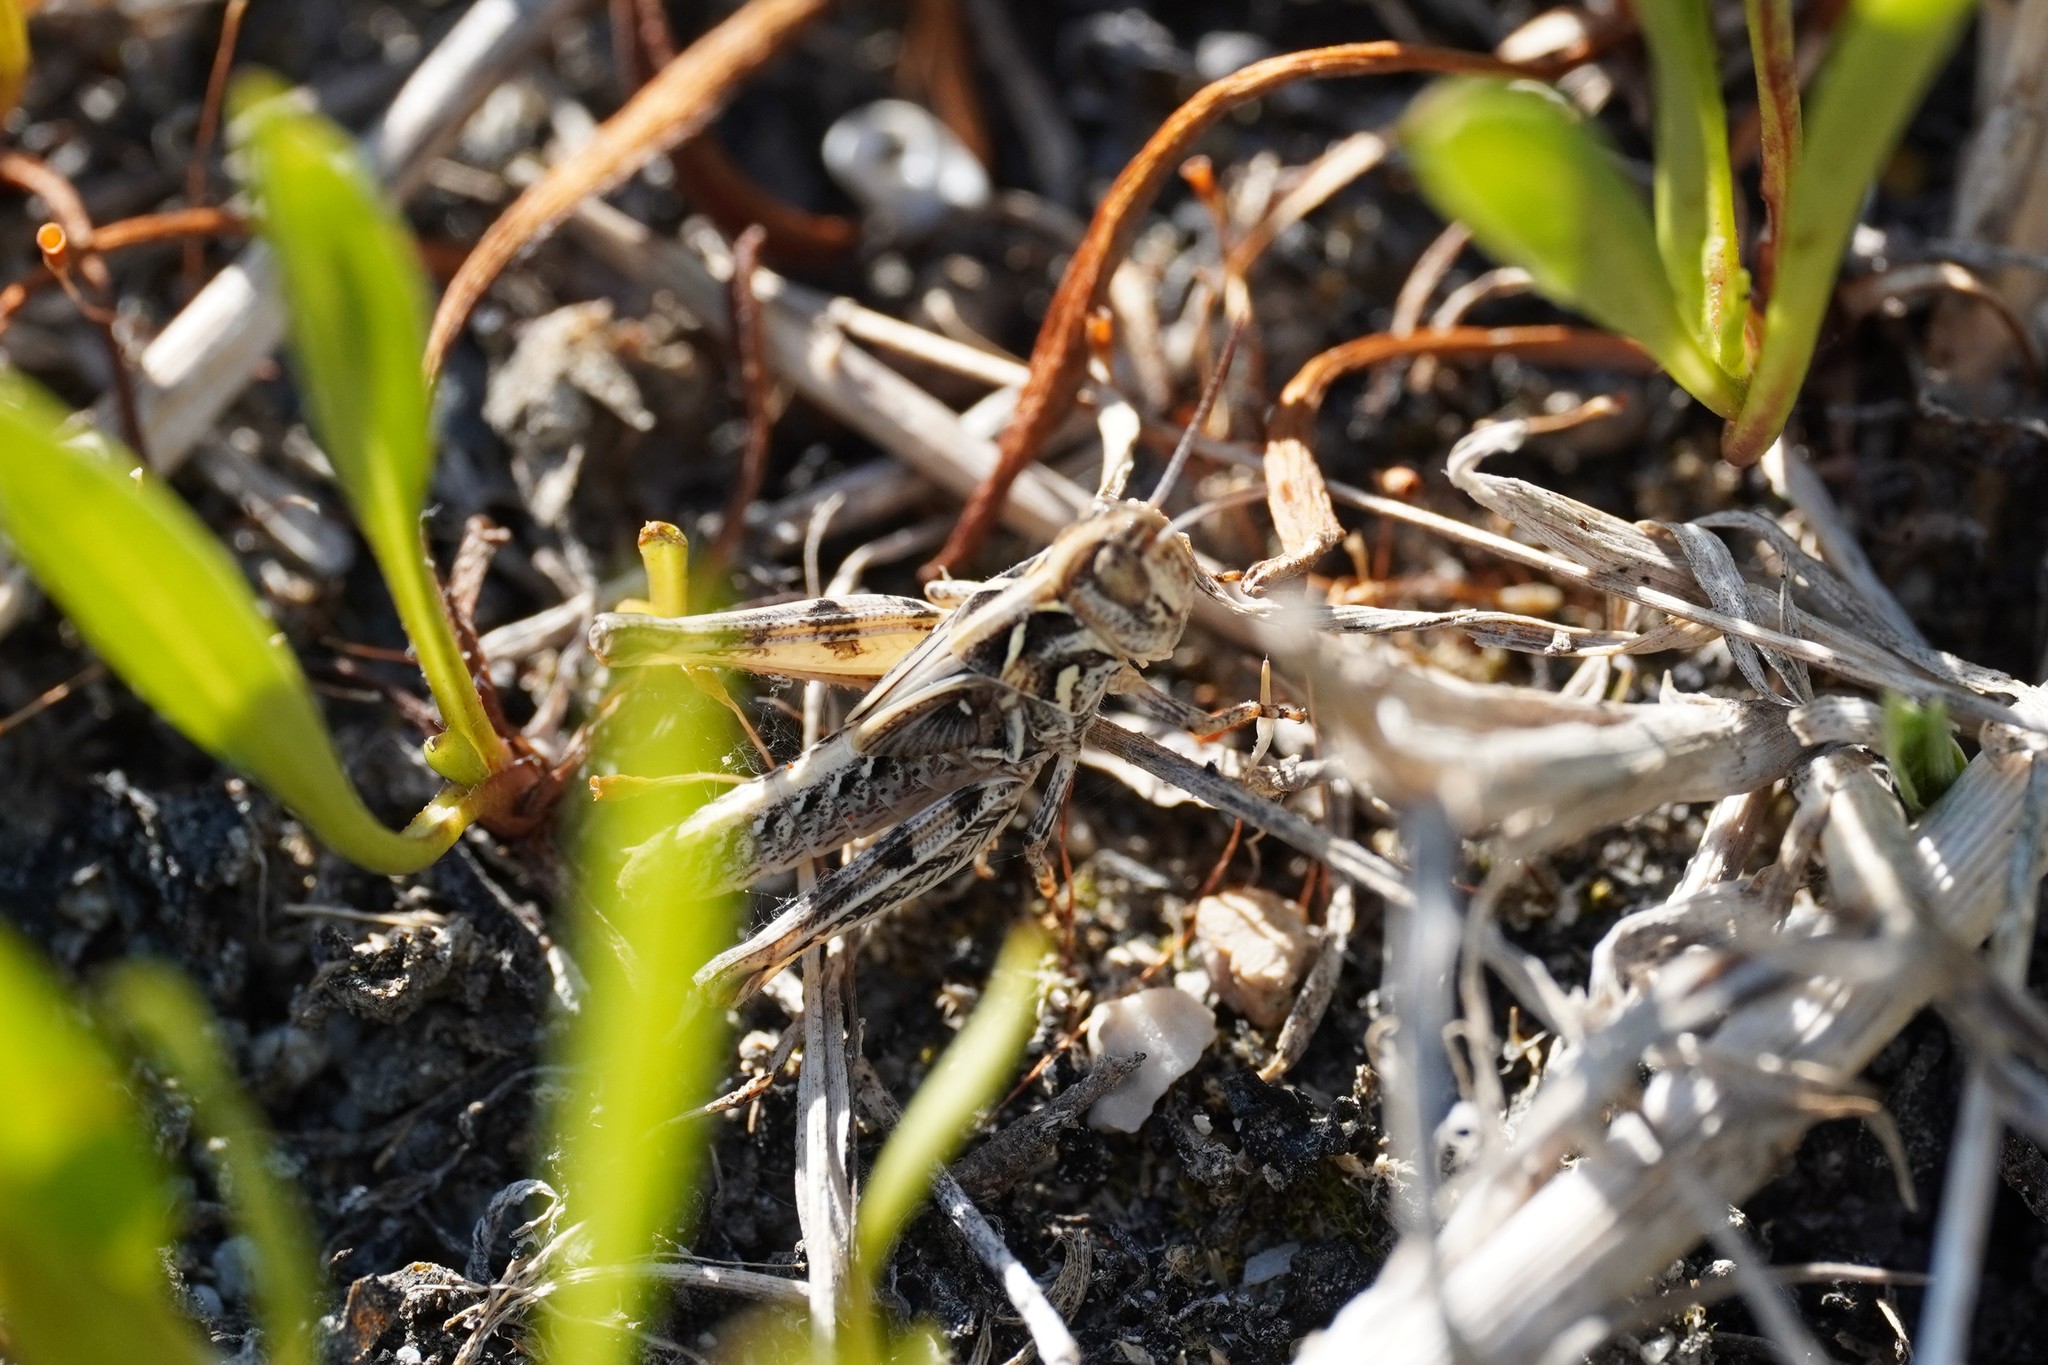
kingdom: Animalia
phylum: Arthropoda
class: Insecta
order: Orthoptera
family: Acrididae
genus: Dociostaurus
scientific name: Dociostaurus brevicollis
